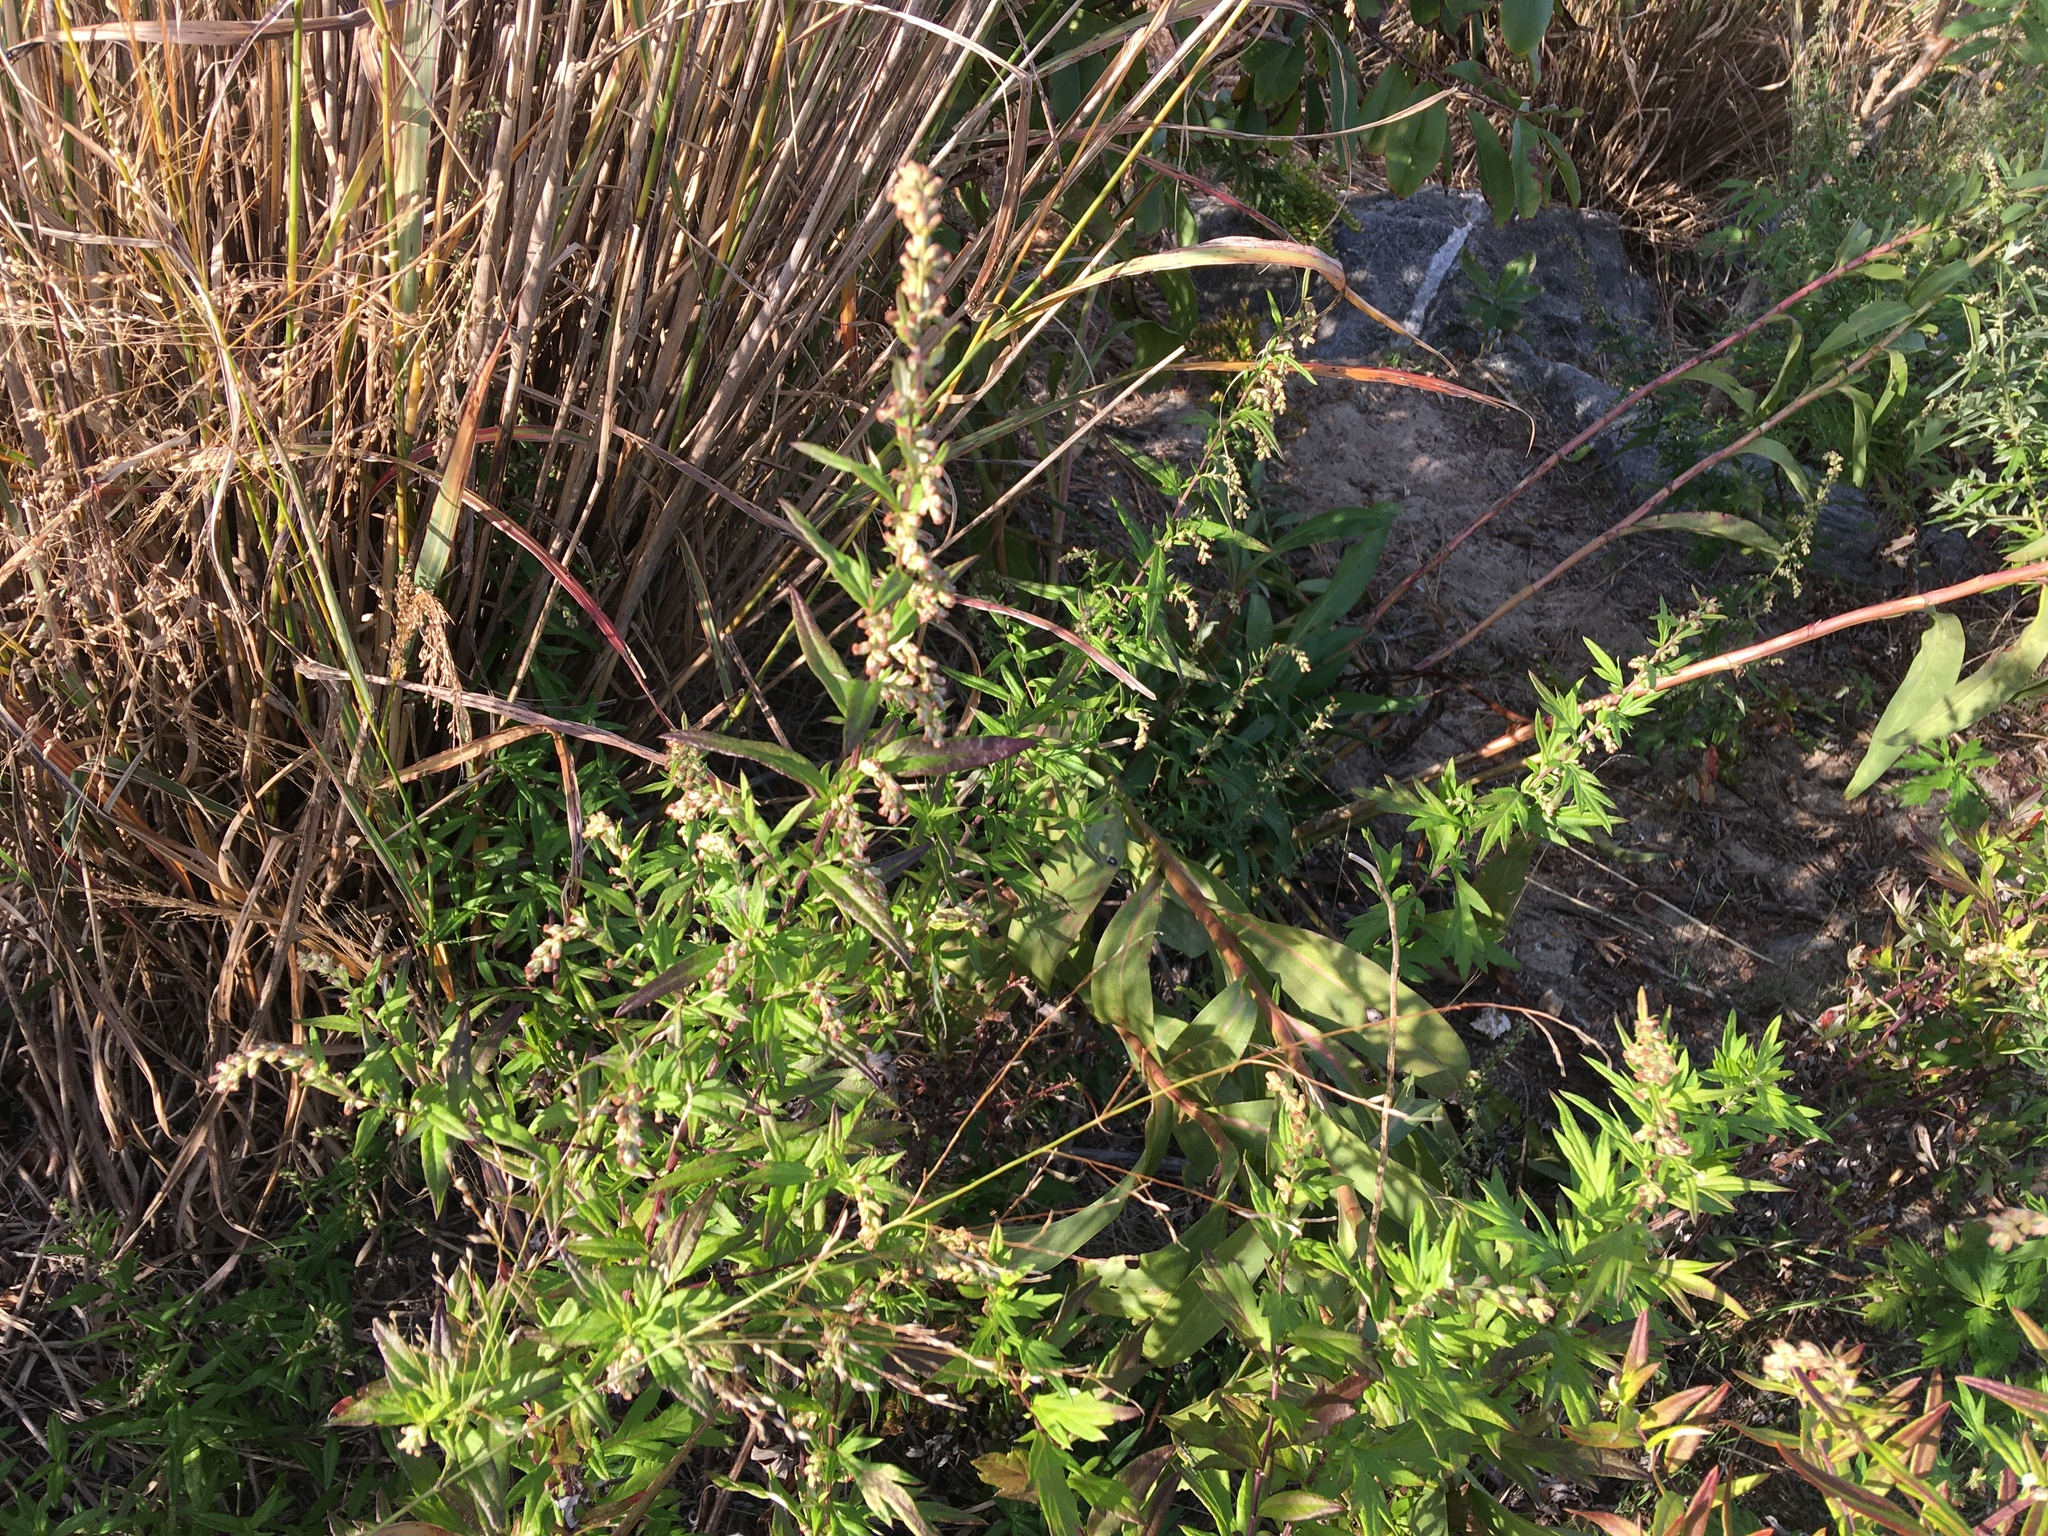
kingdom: Plantae
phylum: Tracheophyta
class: Magnoliopsida
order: Asterales
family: Asteraceae
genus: Artemisia
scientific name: Artemisia vulgaris
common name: Mugwort
